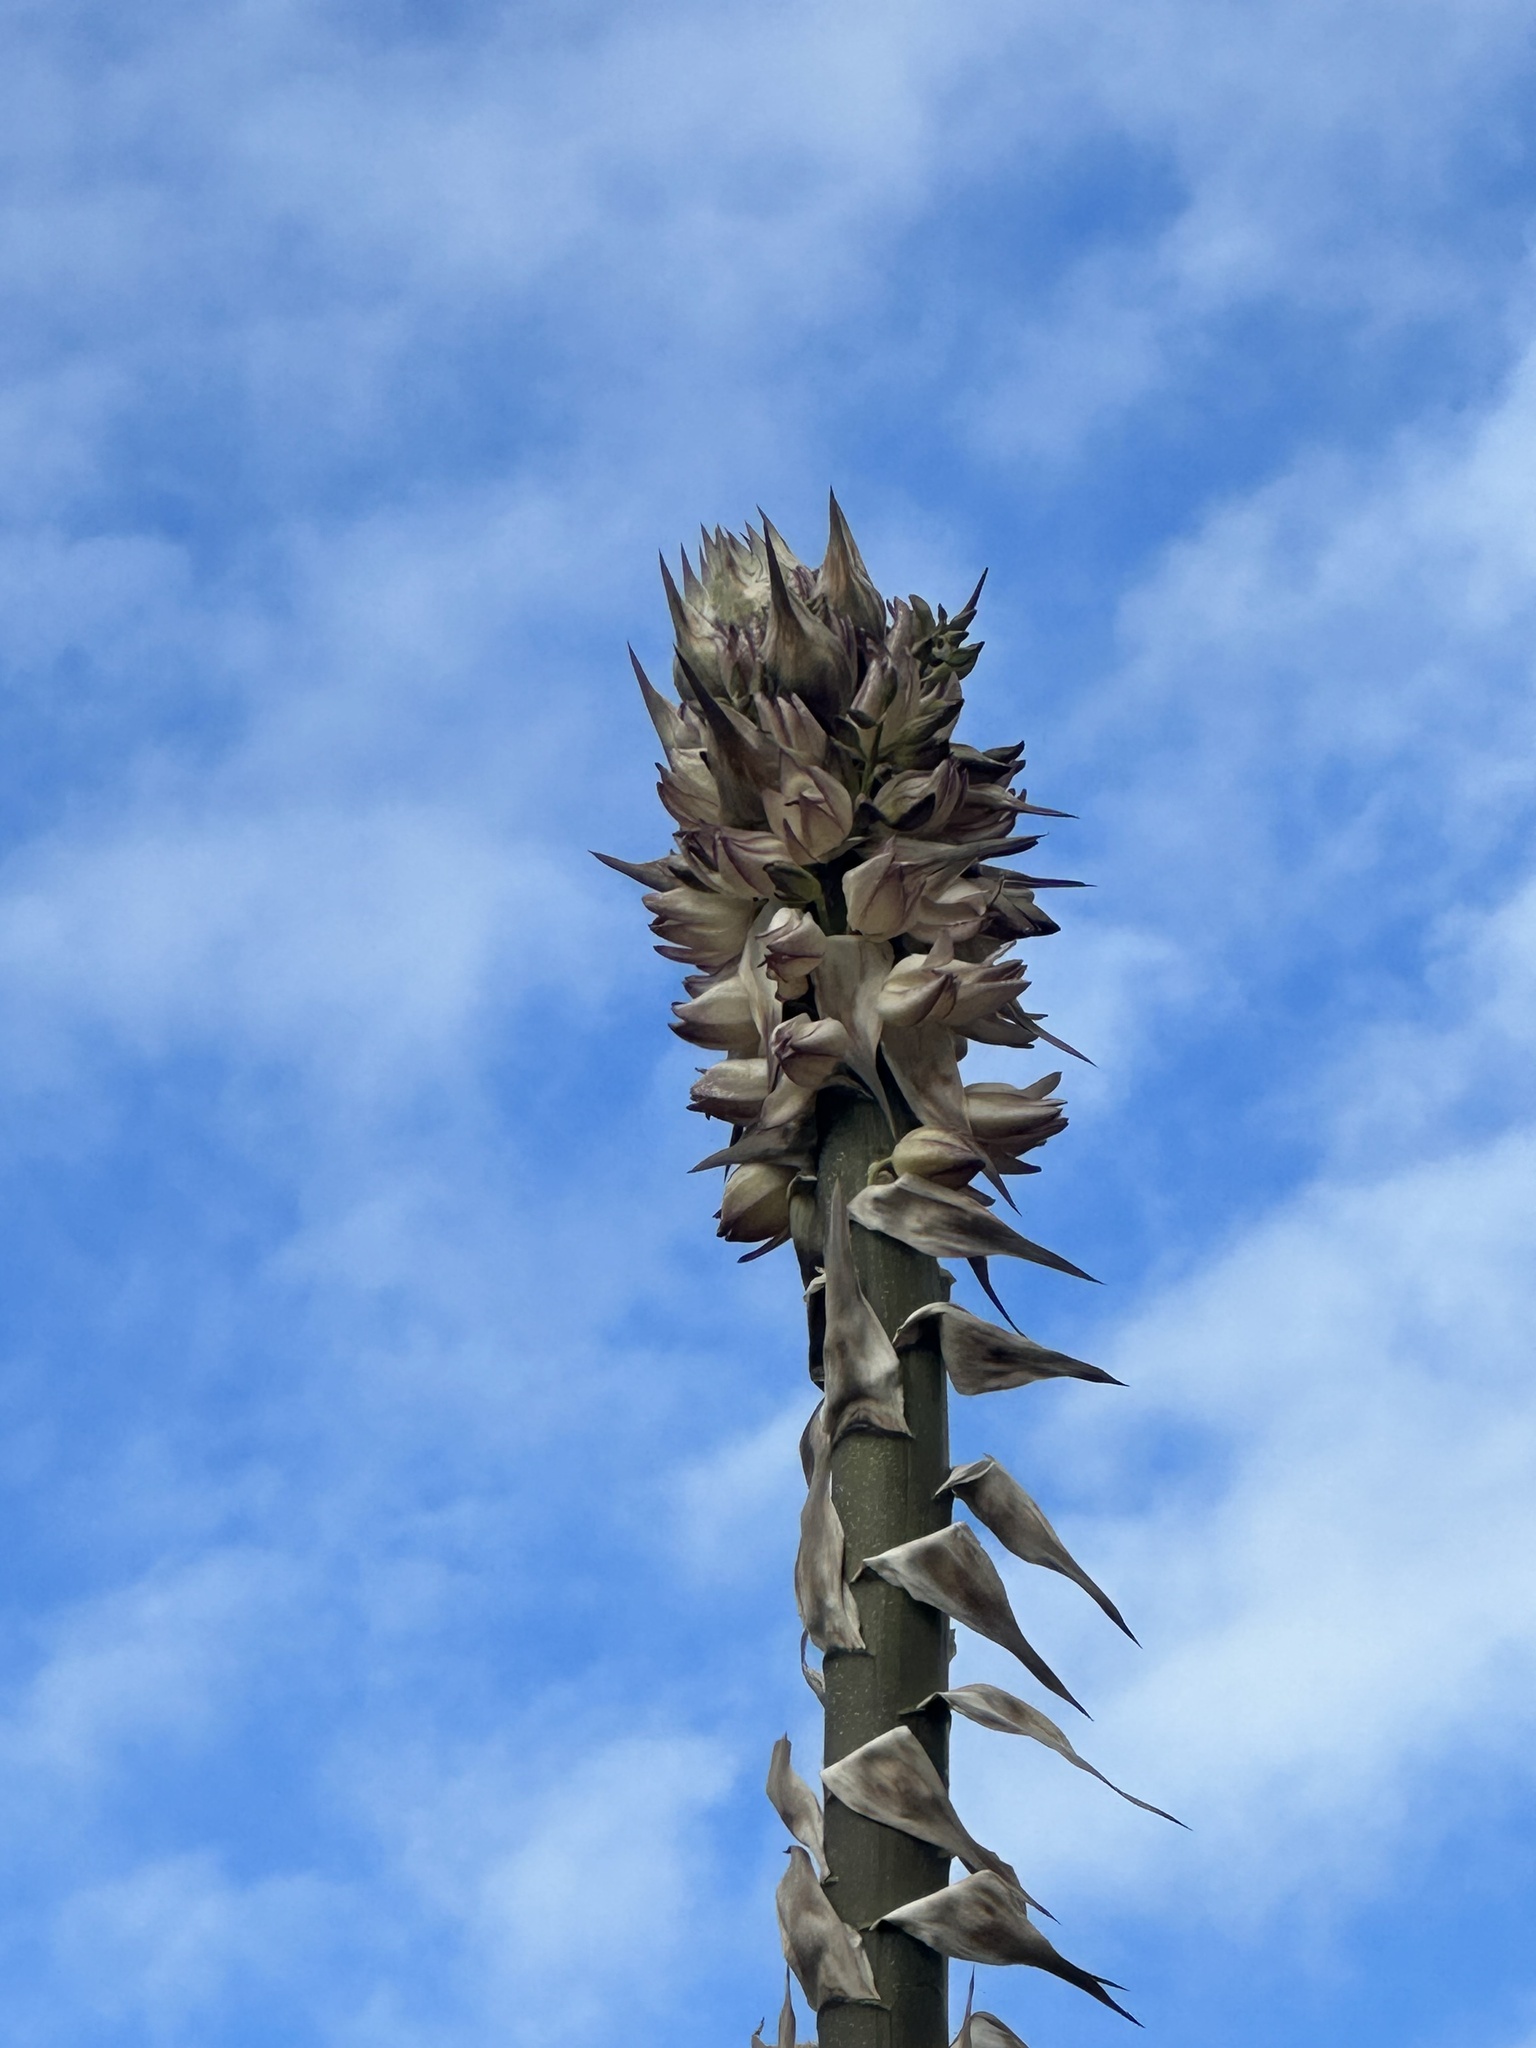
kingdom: Plantae
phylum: Tracheophyta
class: Liliopsida
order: Asparagales
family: Asparagaceae
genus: Hesperoyucca
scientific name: Hesperoyucca whipplei
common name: Our lord's-candle
